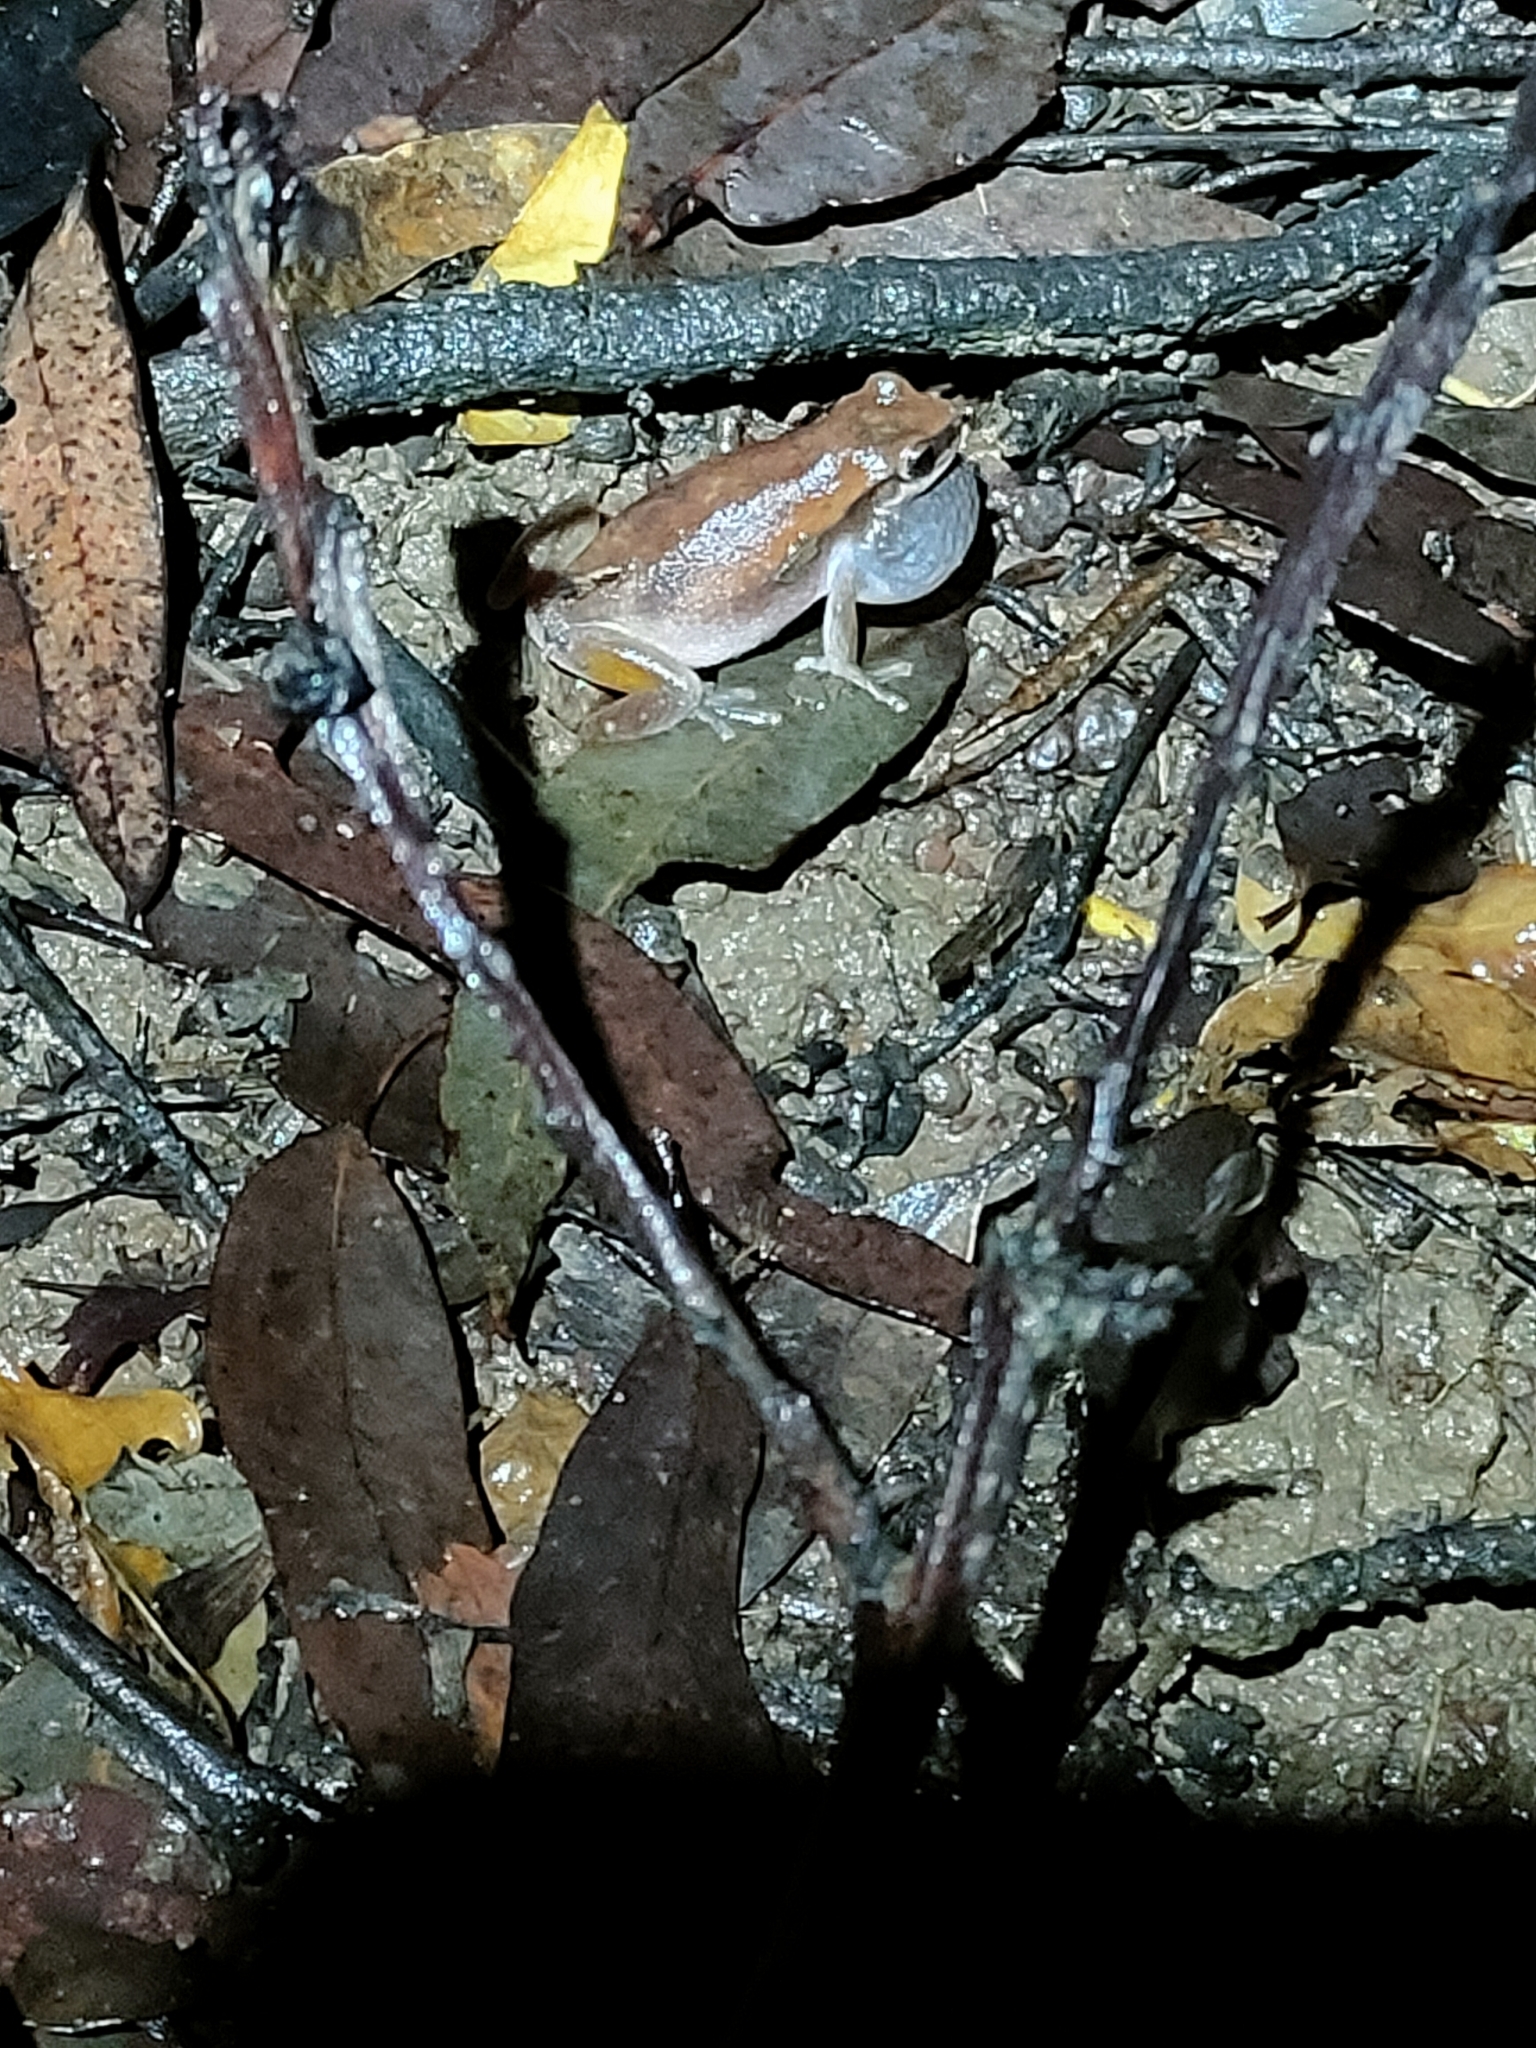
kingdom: Animalia
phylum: Chordata
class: Amphibia
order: Anura
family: Pelodryadidae
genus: Litoria
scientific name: Litoria rubella
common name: Desert tree frog
